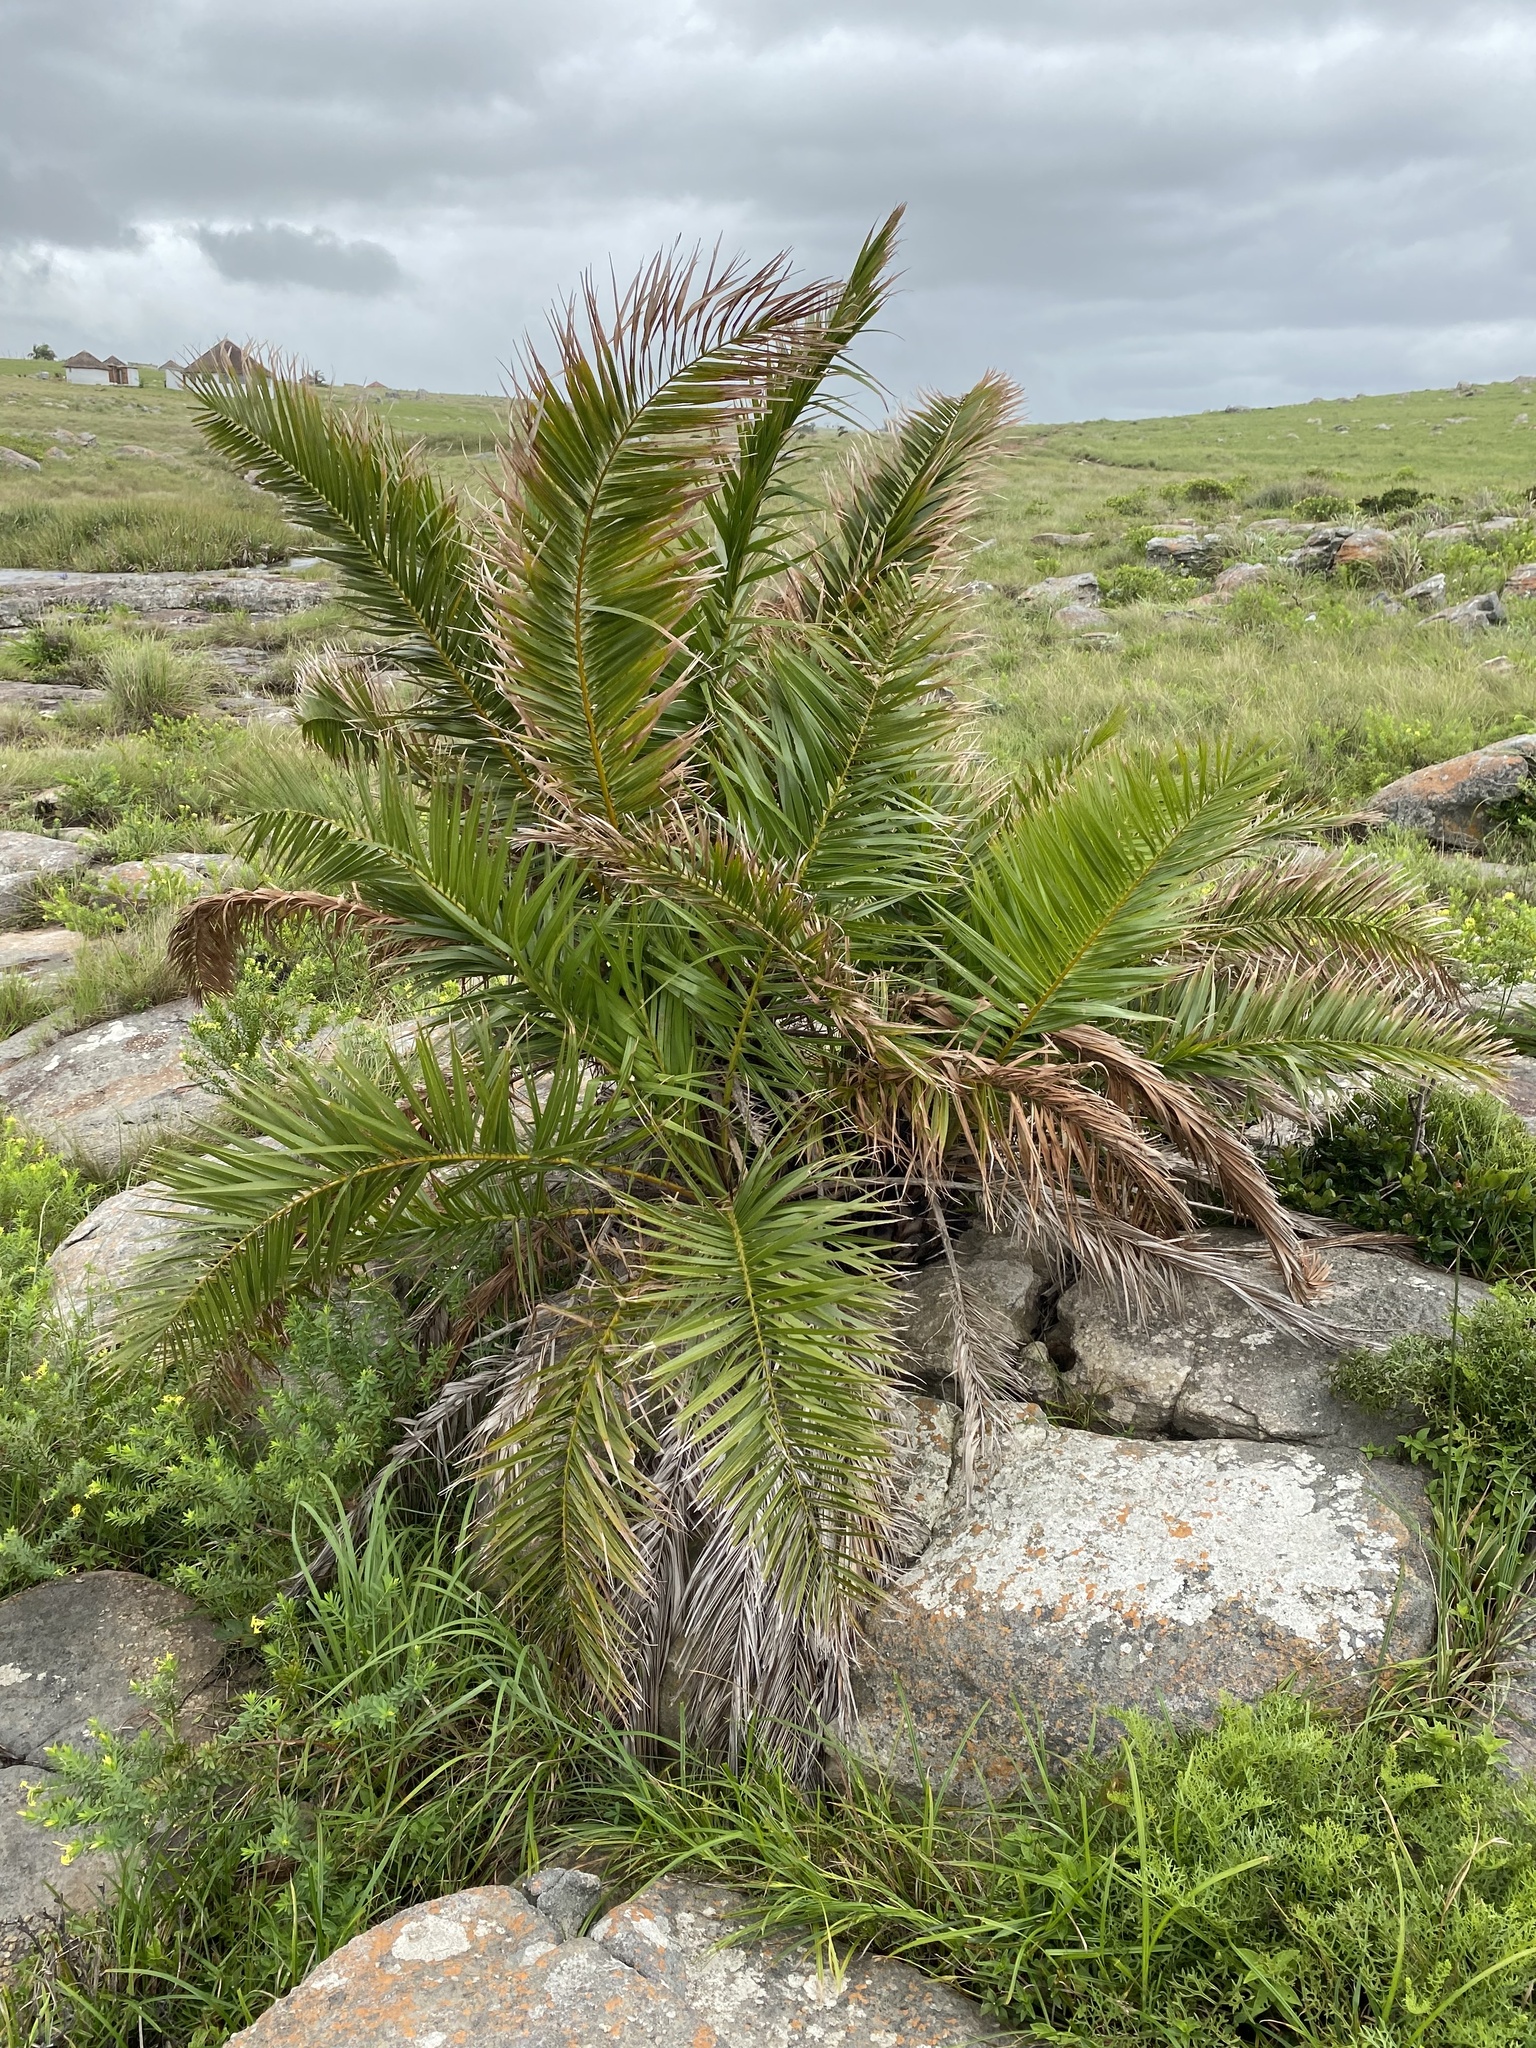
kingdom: Plantae
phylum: Tracheophyta
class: Liliopsida
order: Arecales
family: Arecaceae
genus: Phoenix
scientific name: Phoenix reclinata
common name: Senegal date palm
